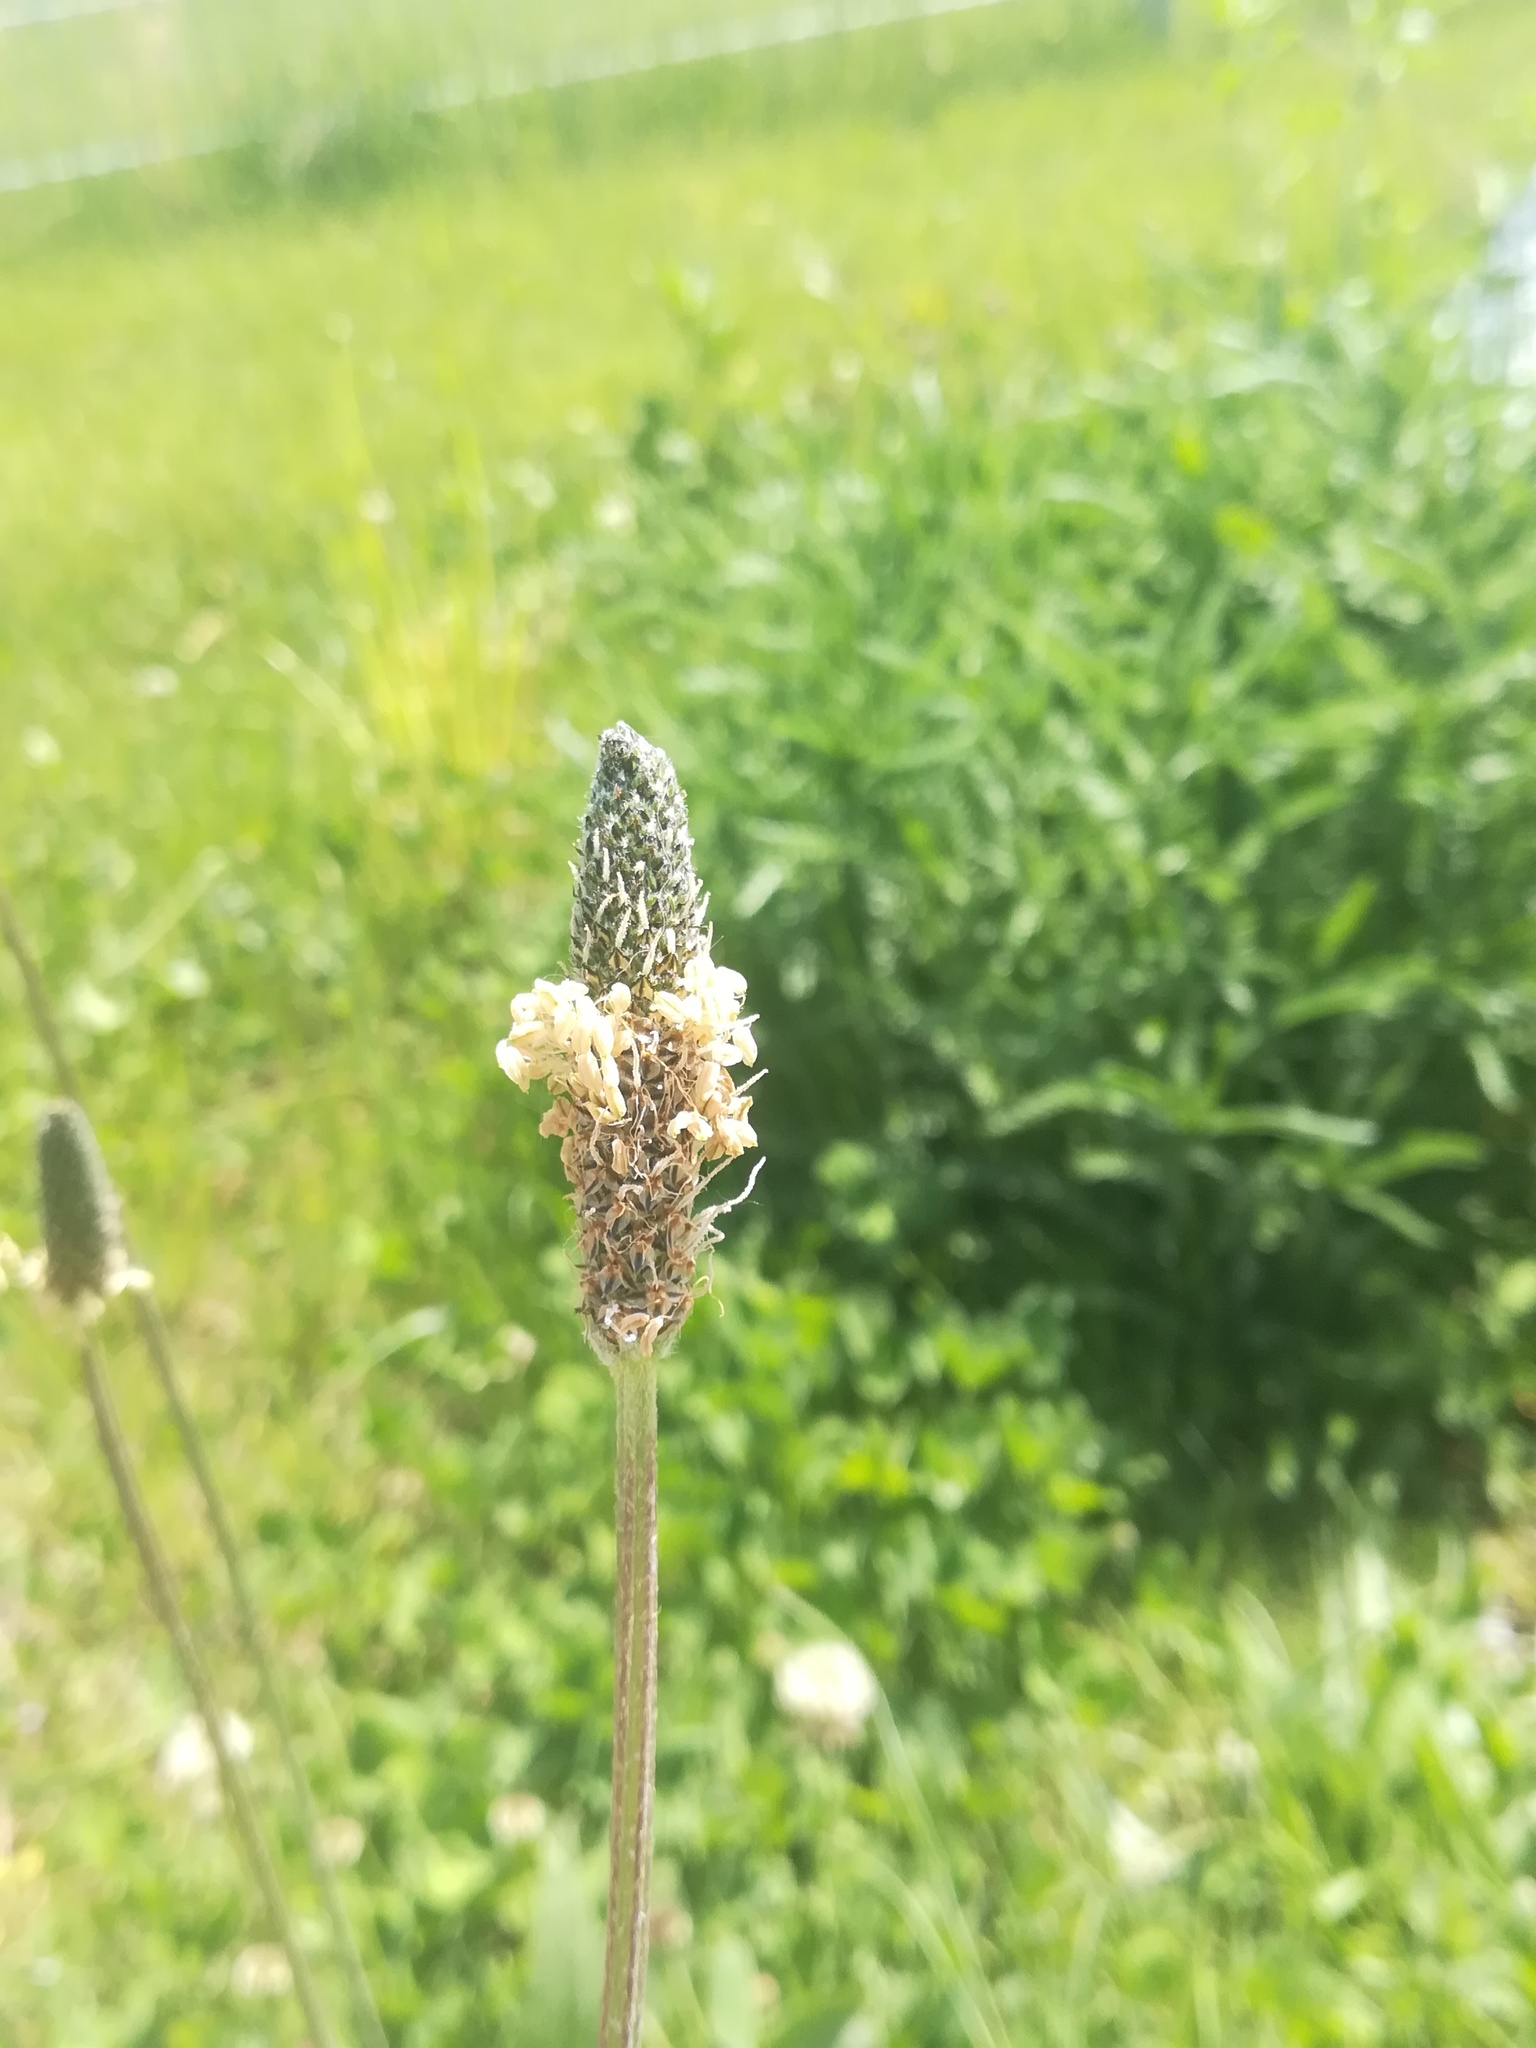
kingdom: Plantae
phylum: Tracheophyta
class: Magnoliopsida
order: Lamiales
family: Plantaginaceae
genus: Plantago
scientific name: Plantago lanceolata
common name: Ribwort plantain
